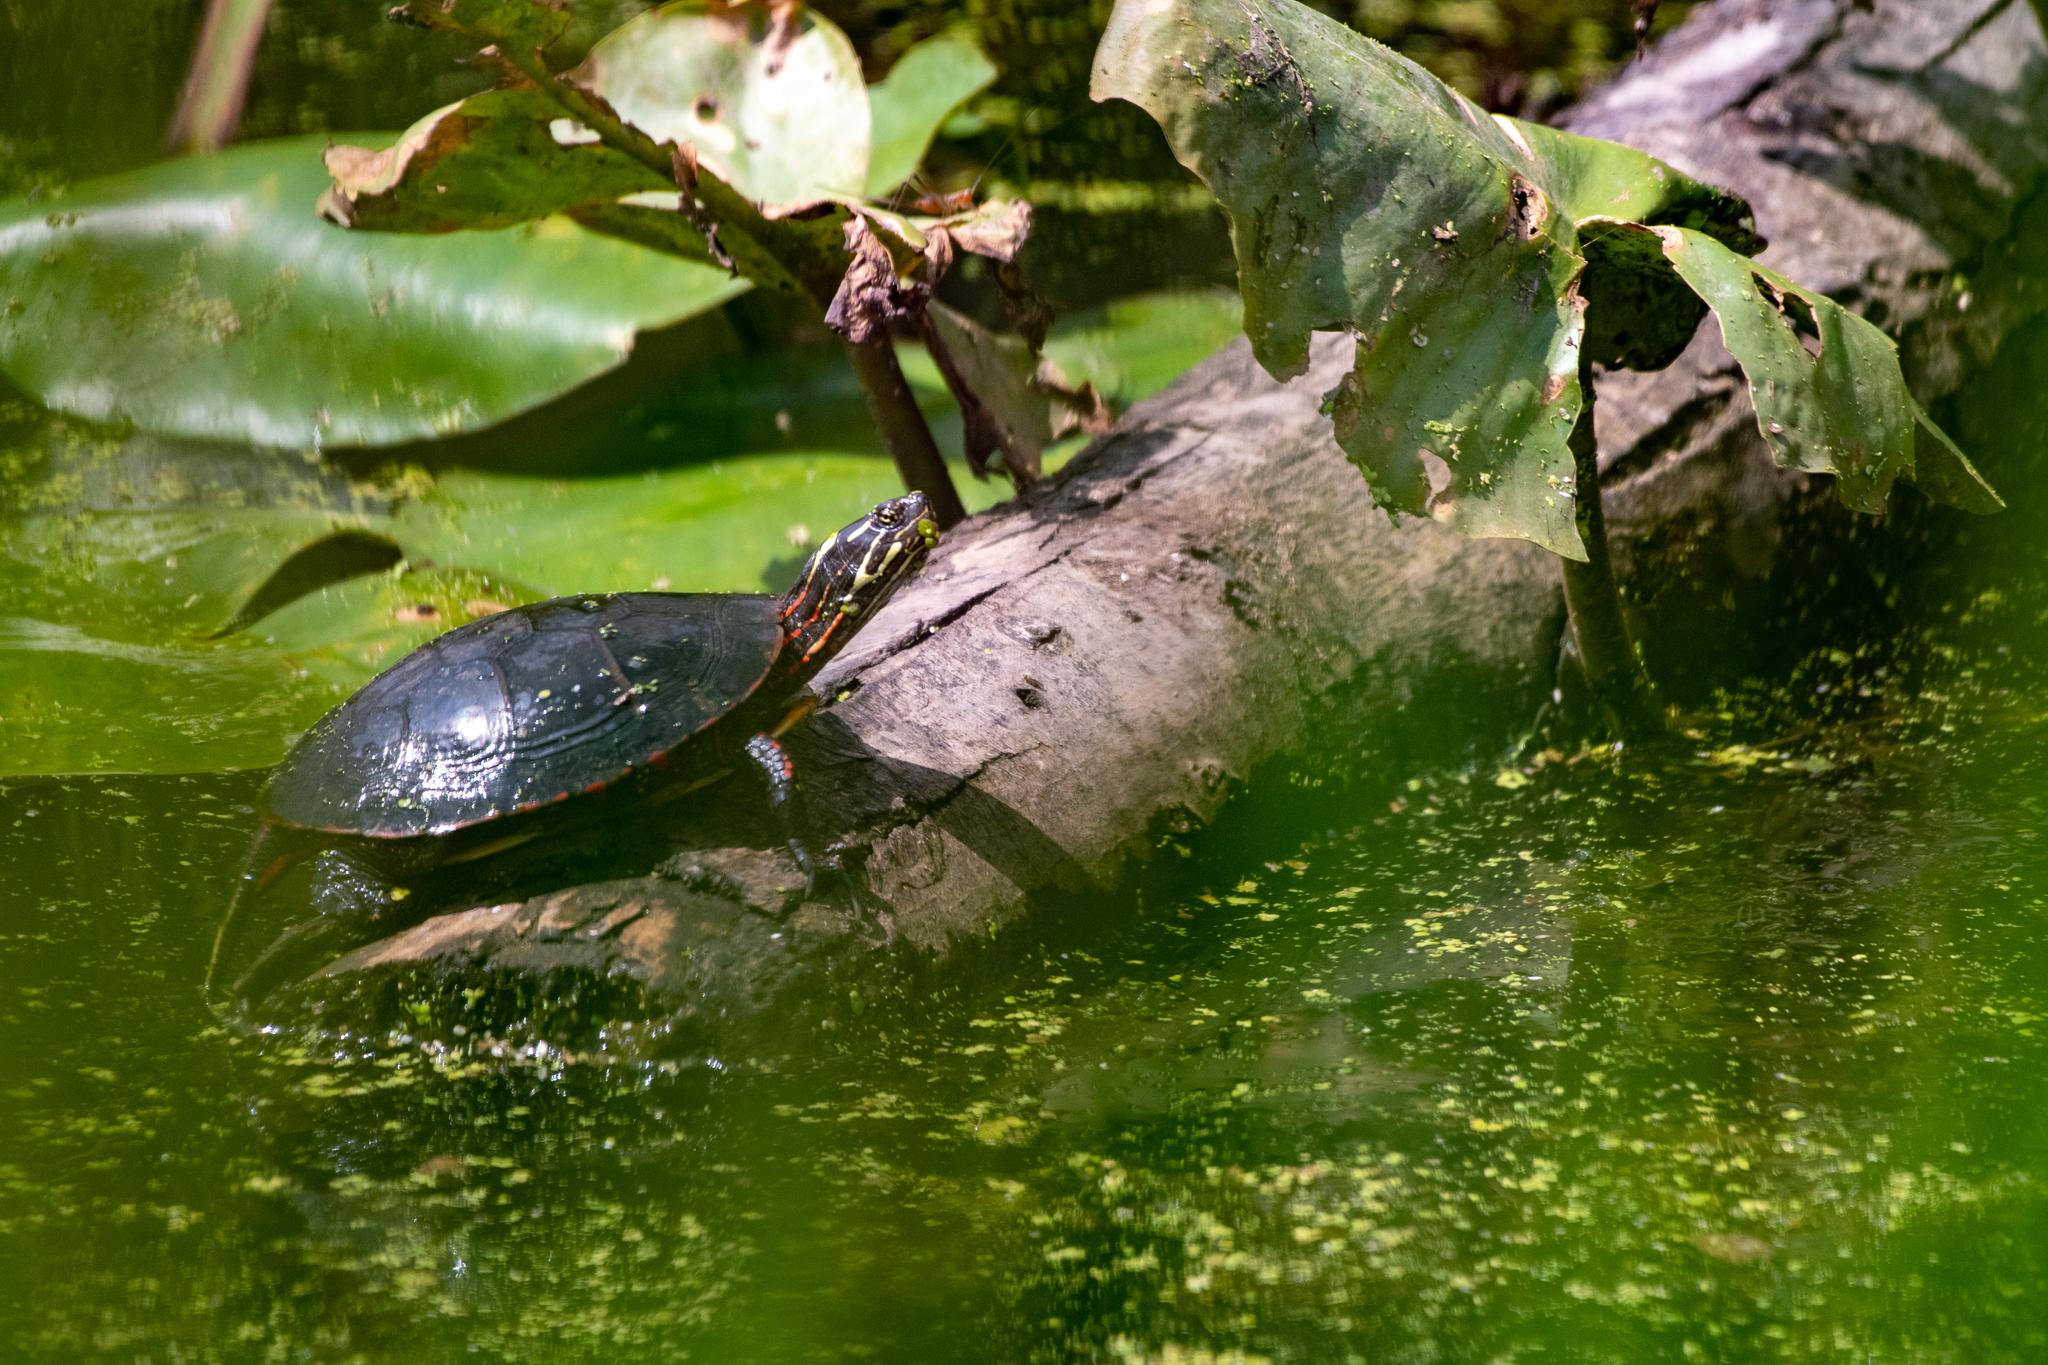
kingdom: Animalia
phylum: Chordata
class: Testudines
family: Emydidae
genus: Chrysemys
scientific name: Chrysemys picta
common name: Painted turtle
